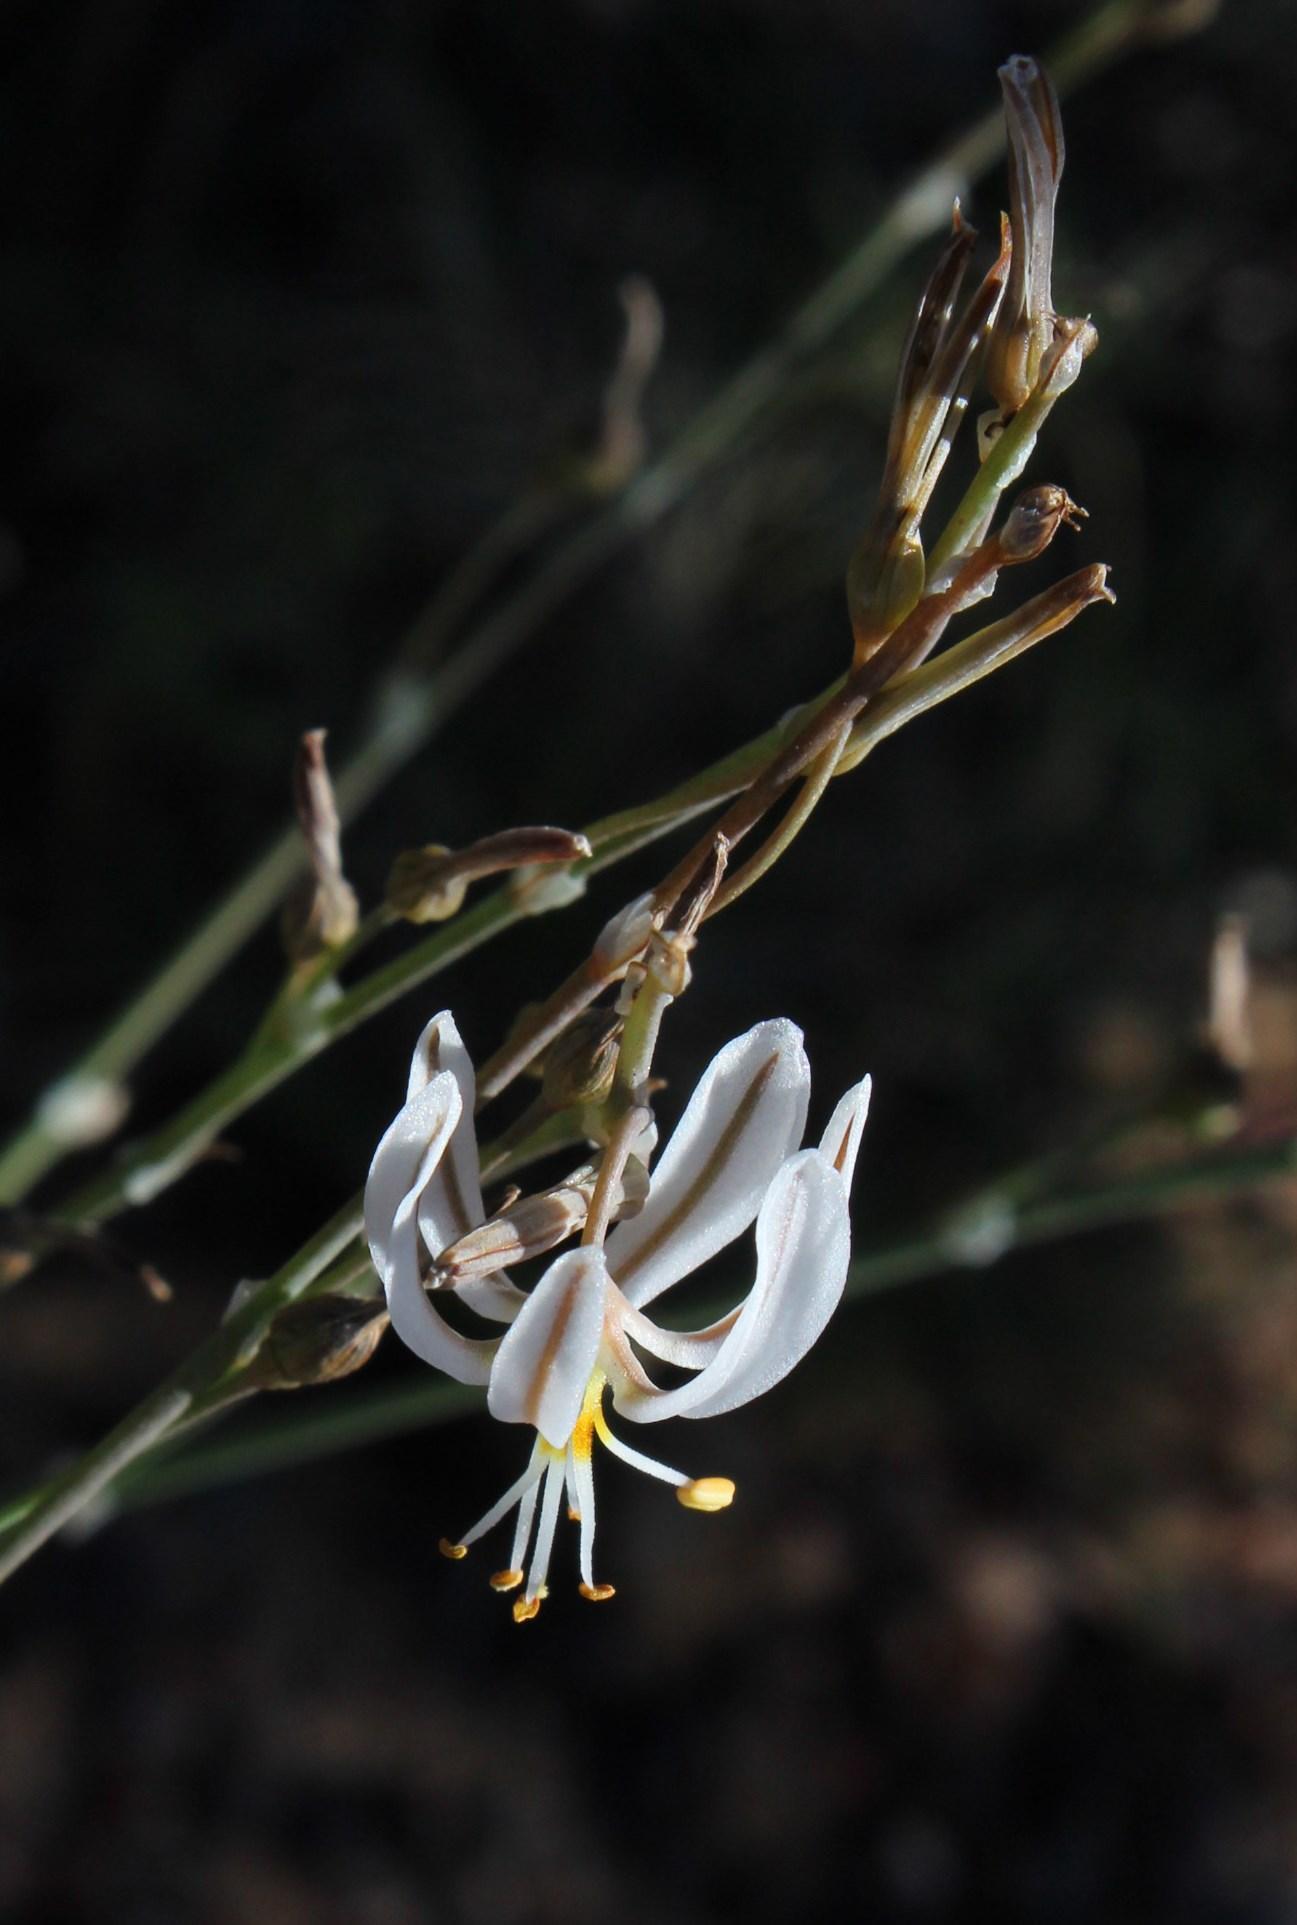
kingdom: Plantae
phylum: Tracheophyta
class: Liliopsida
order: Asparagales
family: Asphodelaceae
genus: Trachyandra
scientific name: Trachyandra muricata
